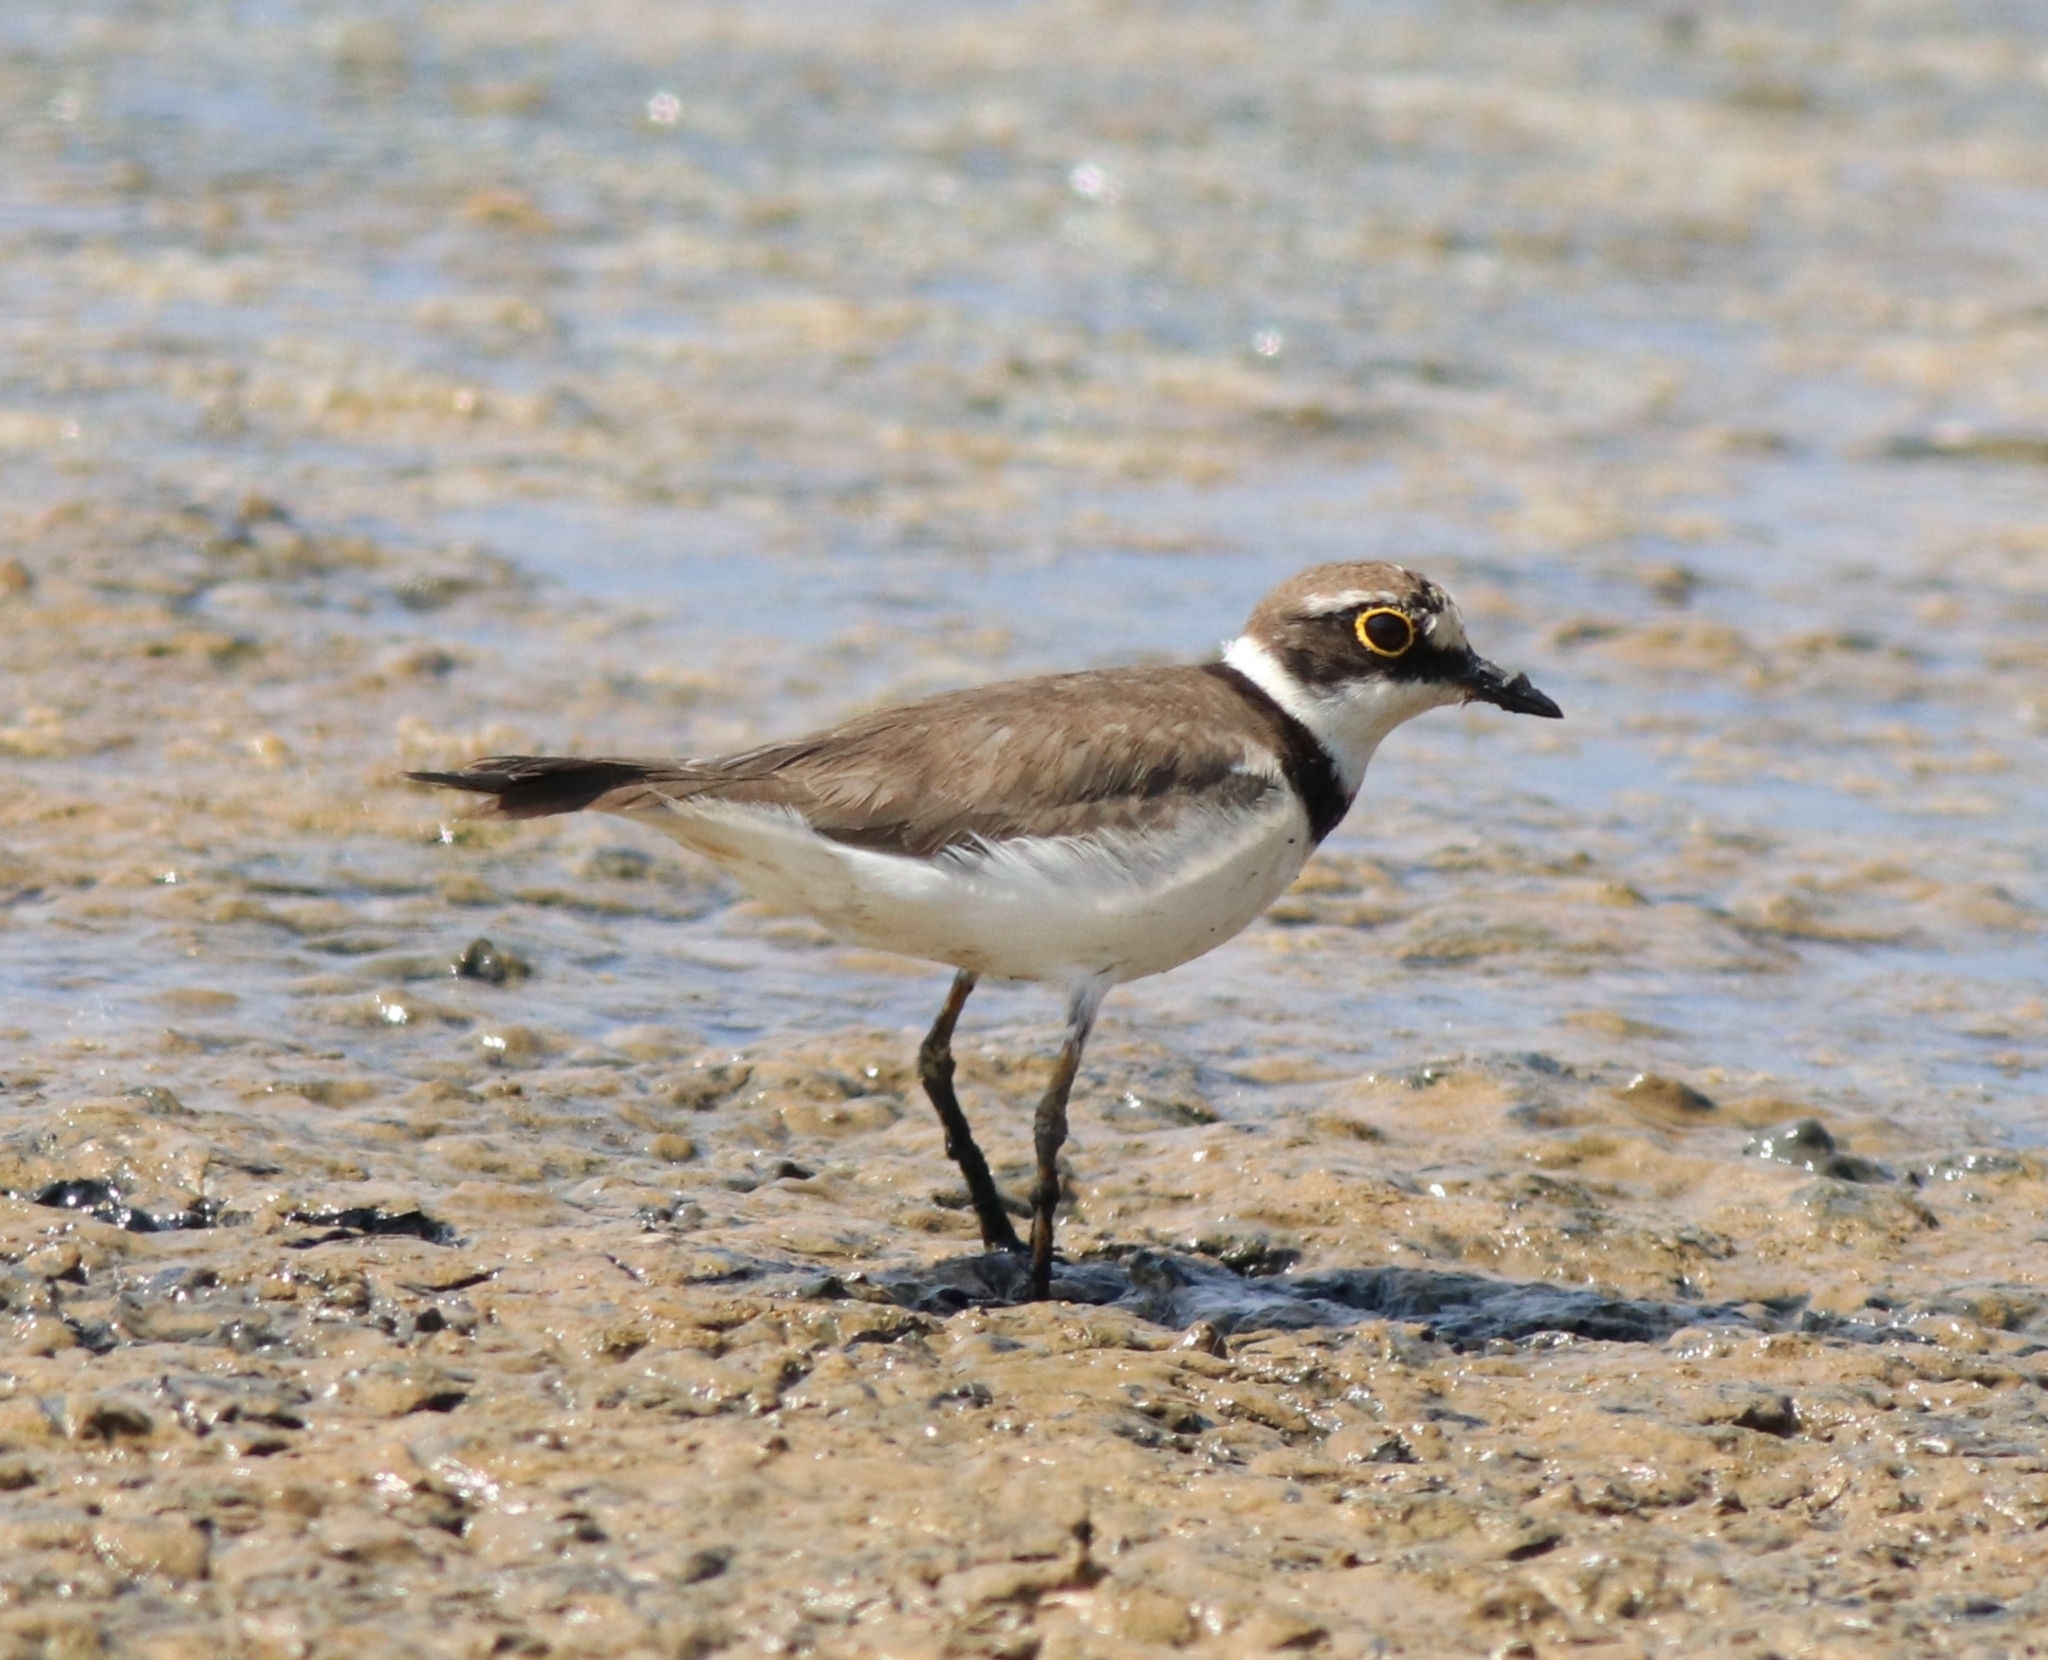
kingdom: Animalia
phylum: Chordata
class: Aves
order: Charadriiformes
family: Charadriidae
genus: Charadrius
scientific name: Charadrius dubius
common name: Little ringed plover
